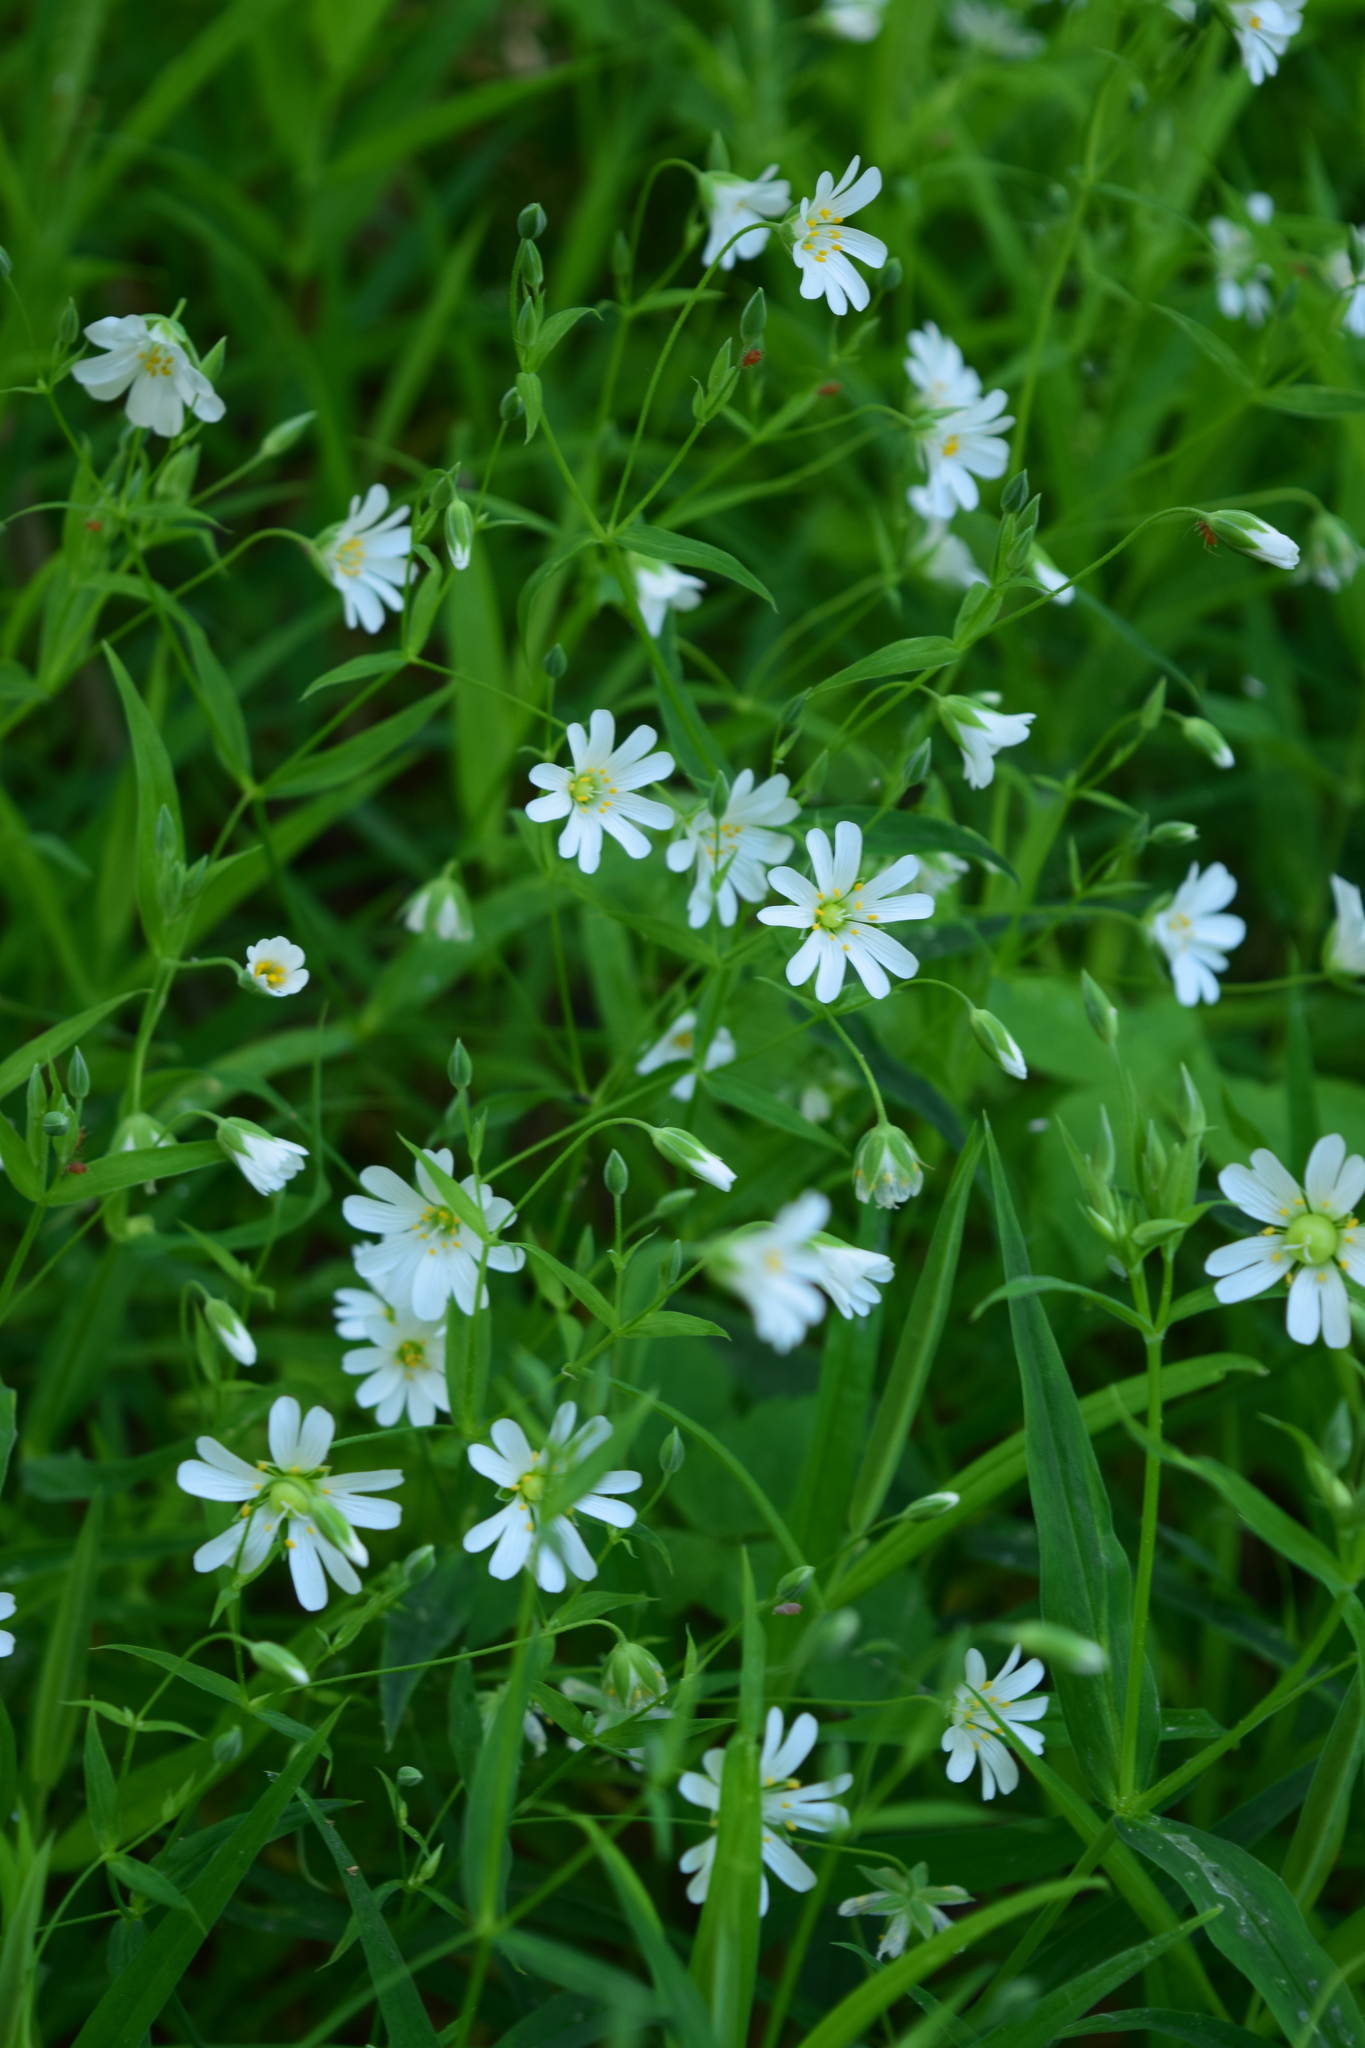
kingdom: Plantae
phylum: Tracheophyta
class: Magnoliopsida
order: Caryophyllales
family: Caryophyllaceae
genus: Rabelera
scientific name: Rabelera holostea
